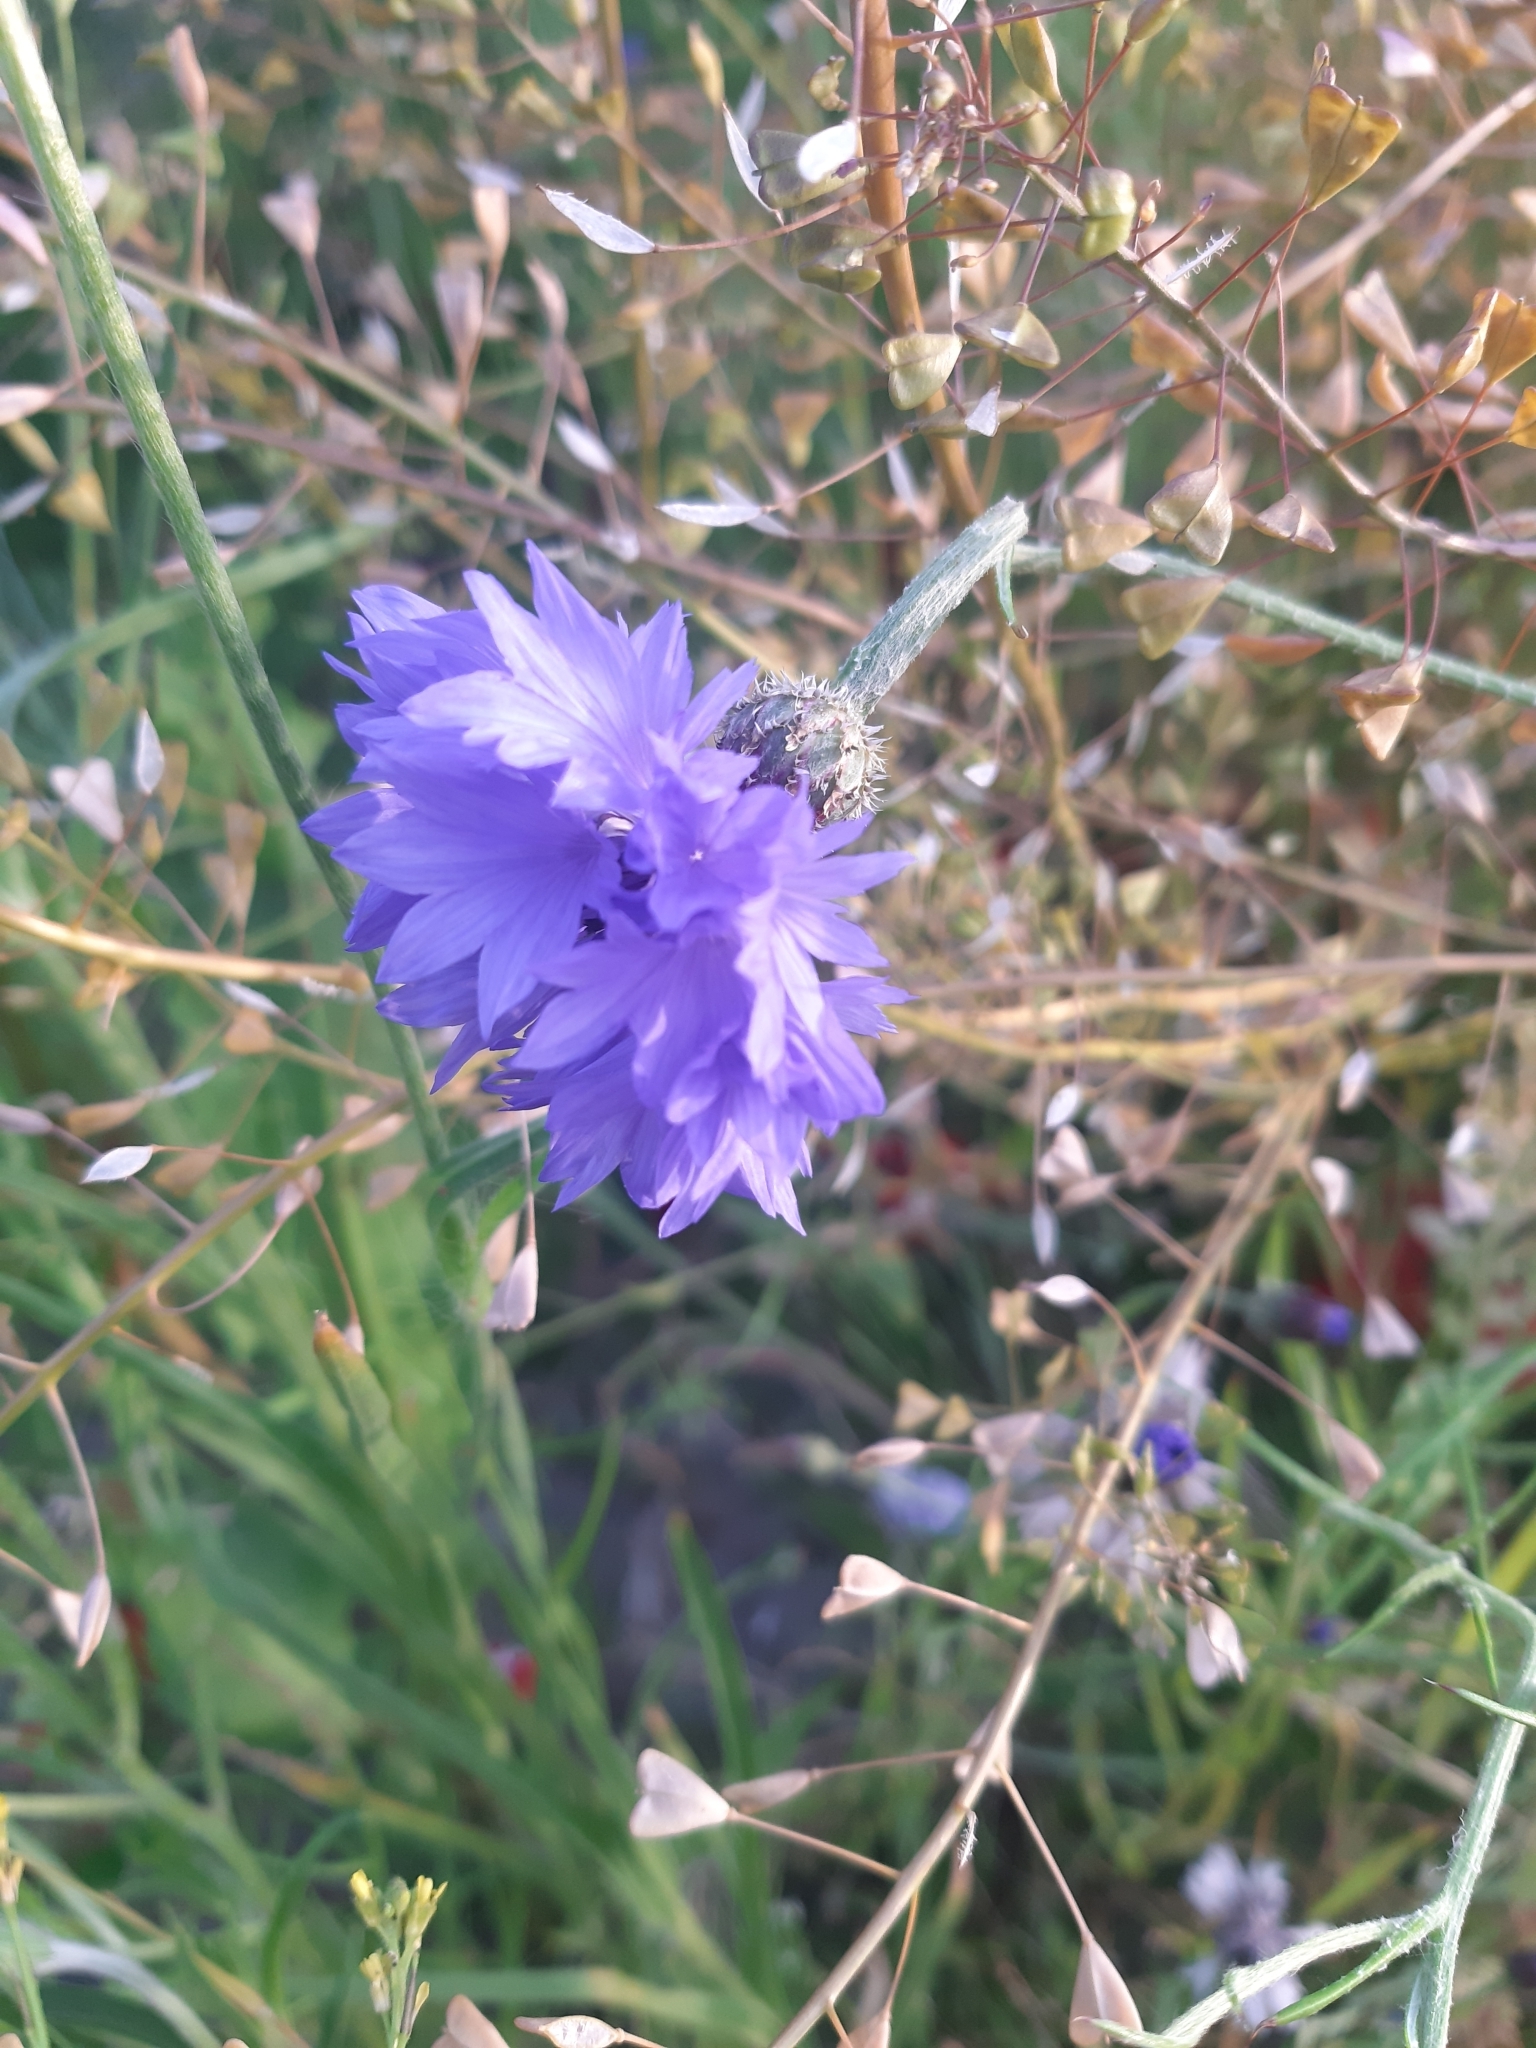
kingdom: Plantae
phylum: Tracheophyta
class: Magnoliopsida
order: Asterales
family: Asteraceae
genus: Centaurea
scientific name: Centaurea cyanus
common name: Cornflower
